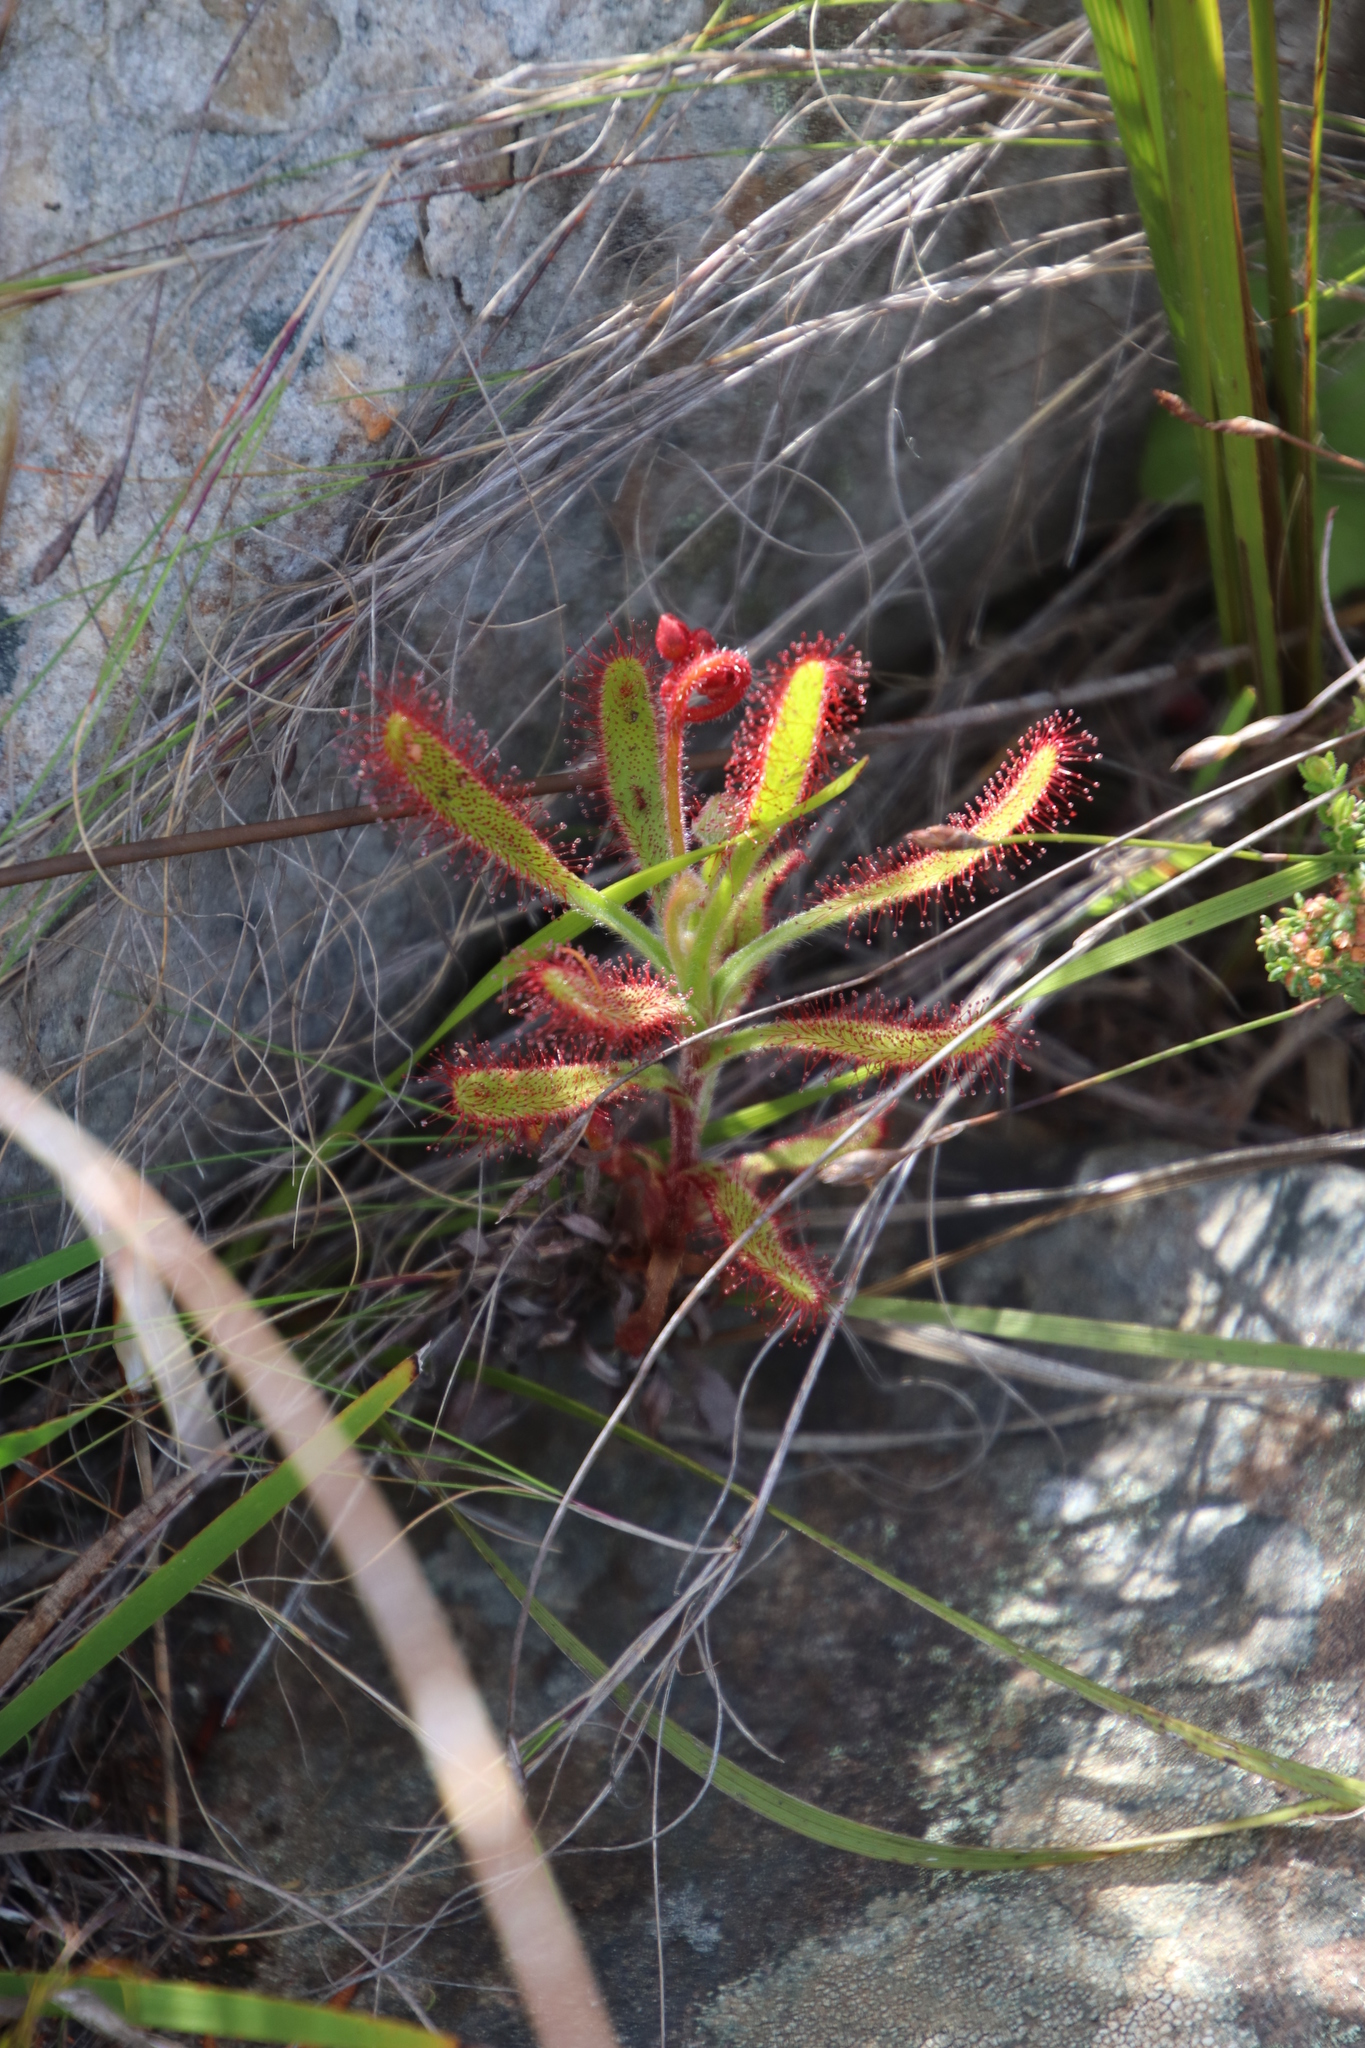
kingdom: Plantae
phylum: Tracheophyta
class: Magnoliopsida
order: Caryophyllales
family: Droseraceae
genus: Drosera
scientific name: Drosera hilaris
